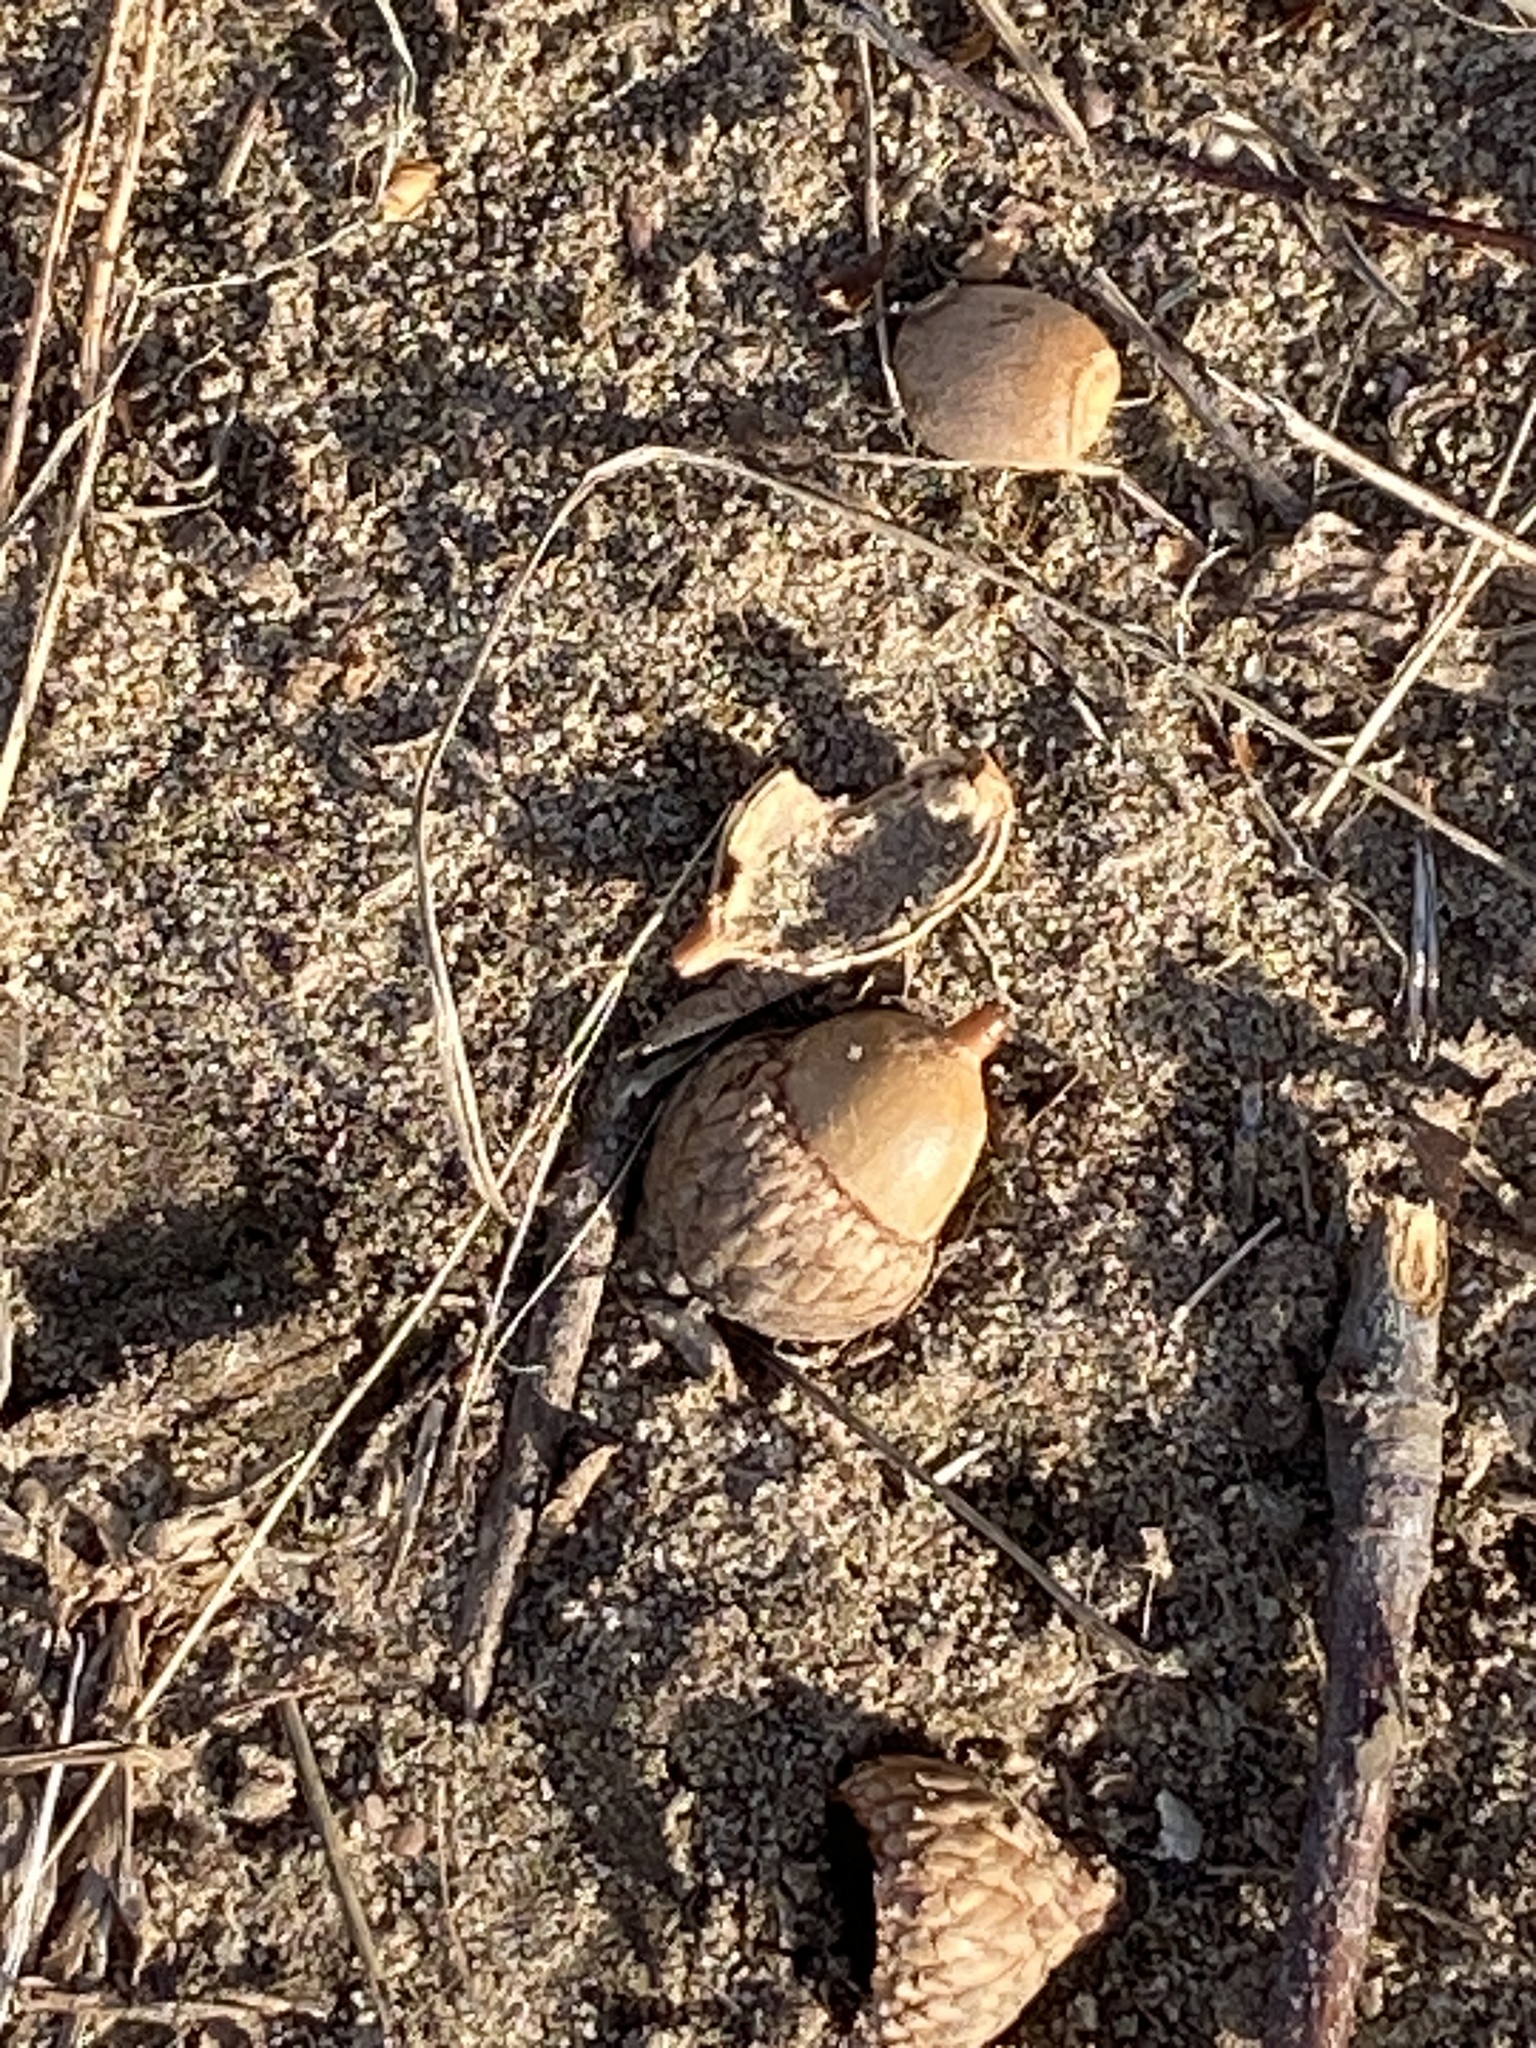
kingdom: Plantae
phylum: Tracheophyta
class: Magnoliopsida
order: Fagales
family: Fagaceae
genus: Quercus
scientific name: Quercus velutina
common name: Black oak
